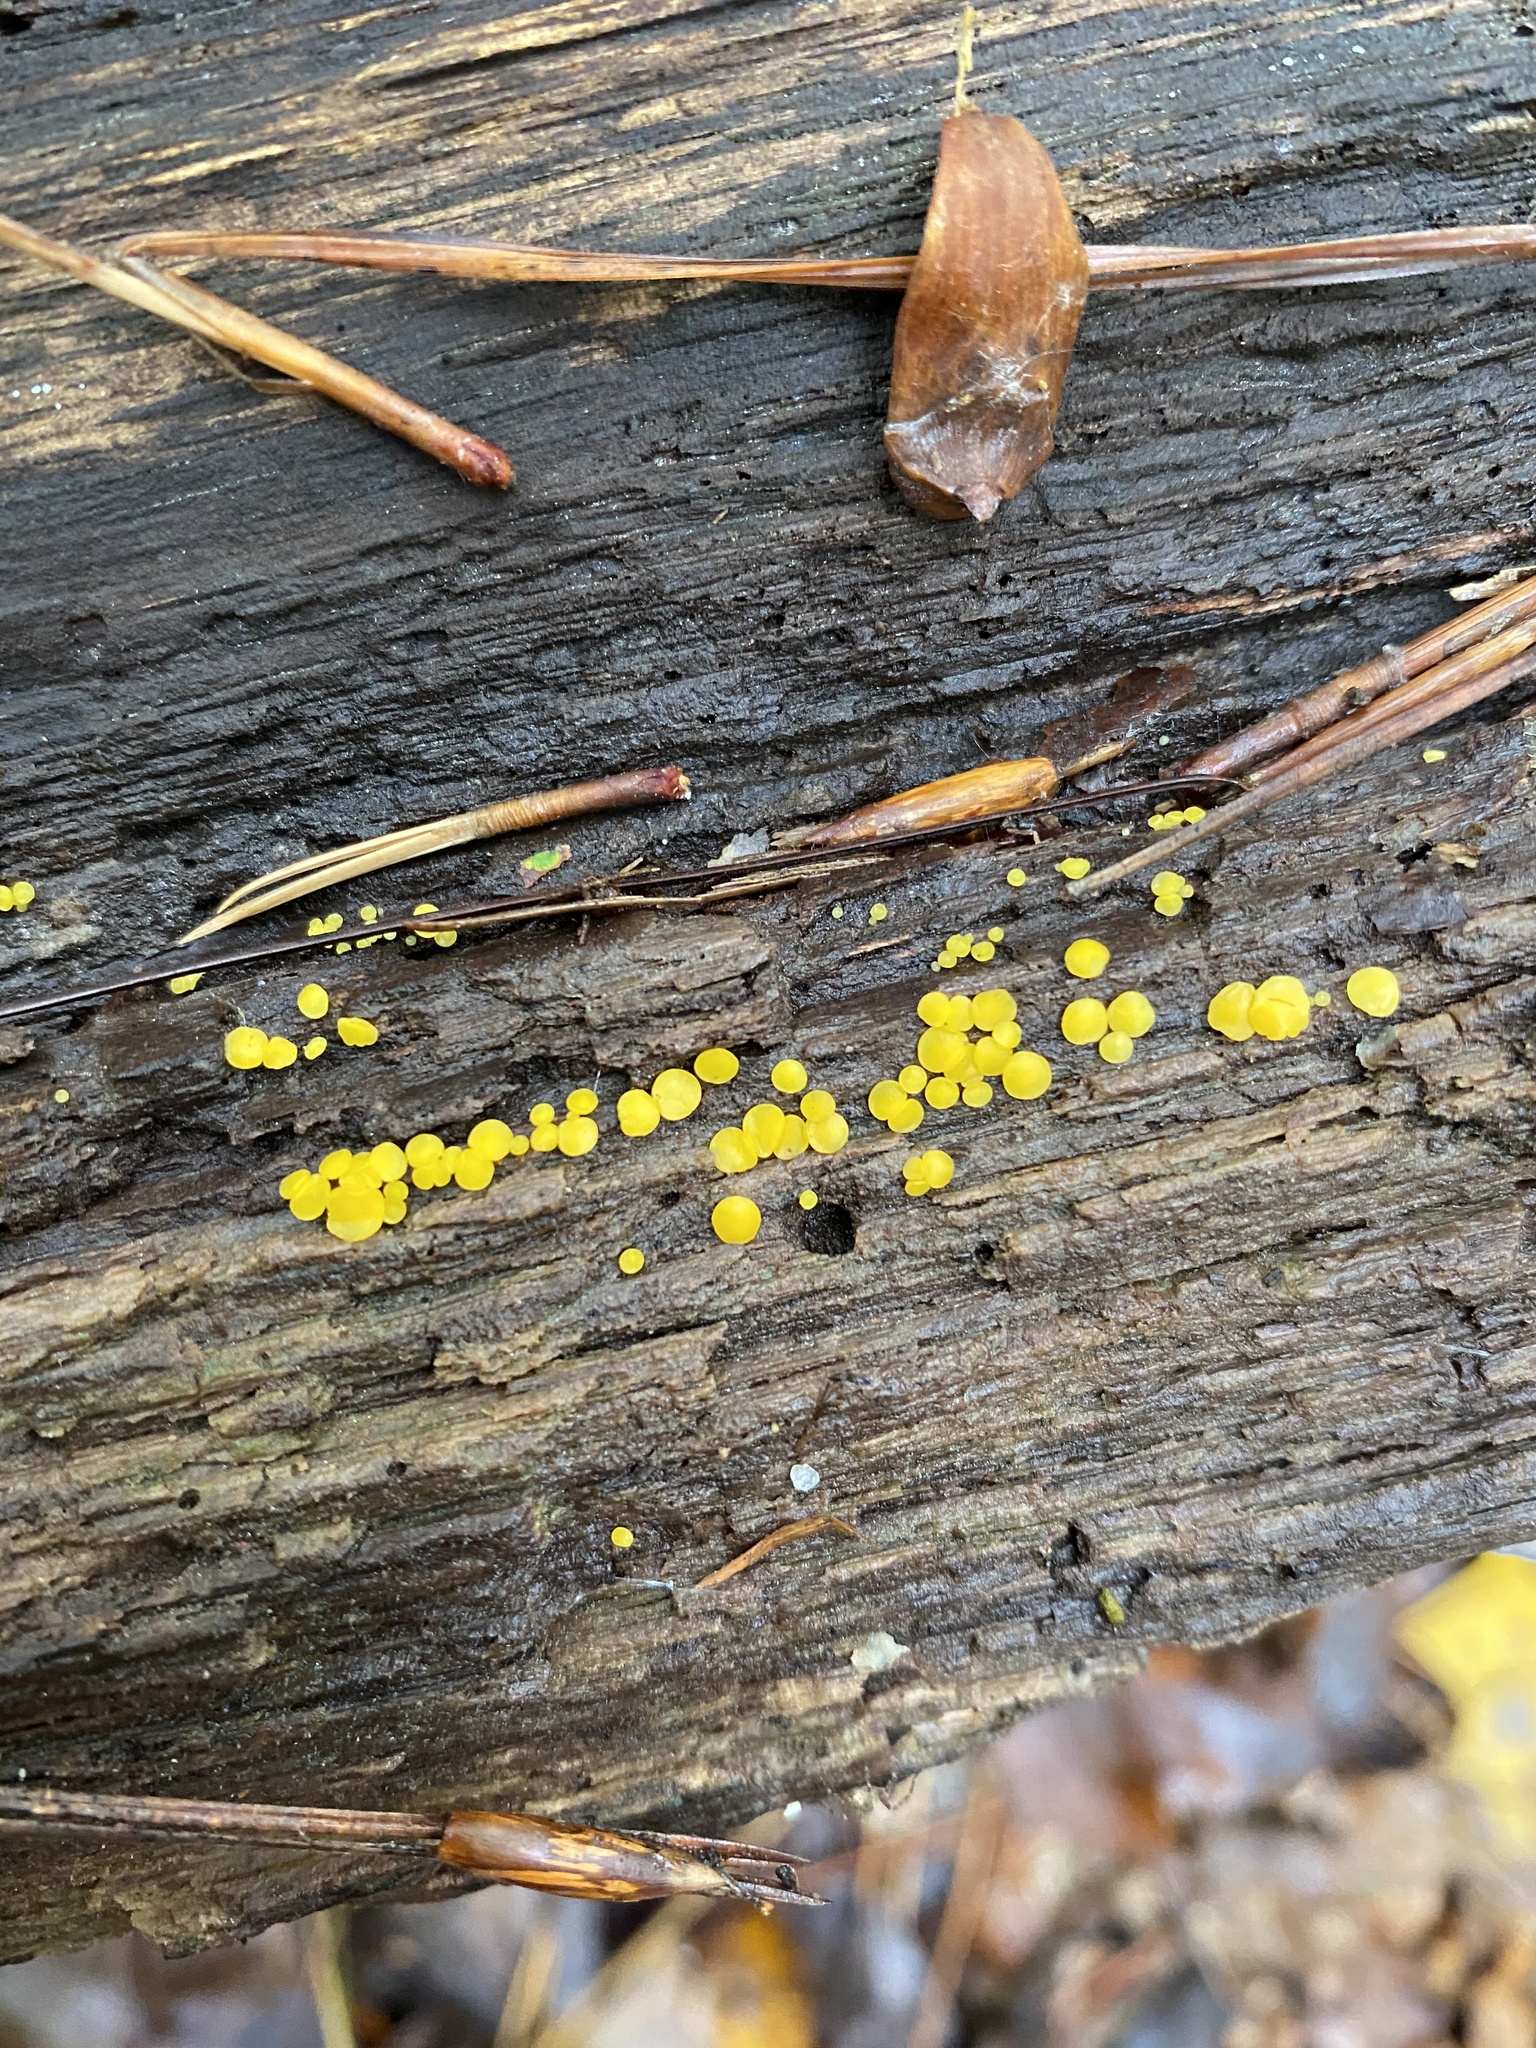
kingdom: Fungi
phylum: Ascomycota
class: Leotiomycetes
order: Helotiales
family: Pezizellaceae
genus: Calycina
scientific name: Calycina citrina
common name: Yellow fairy cups
